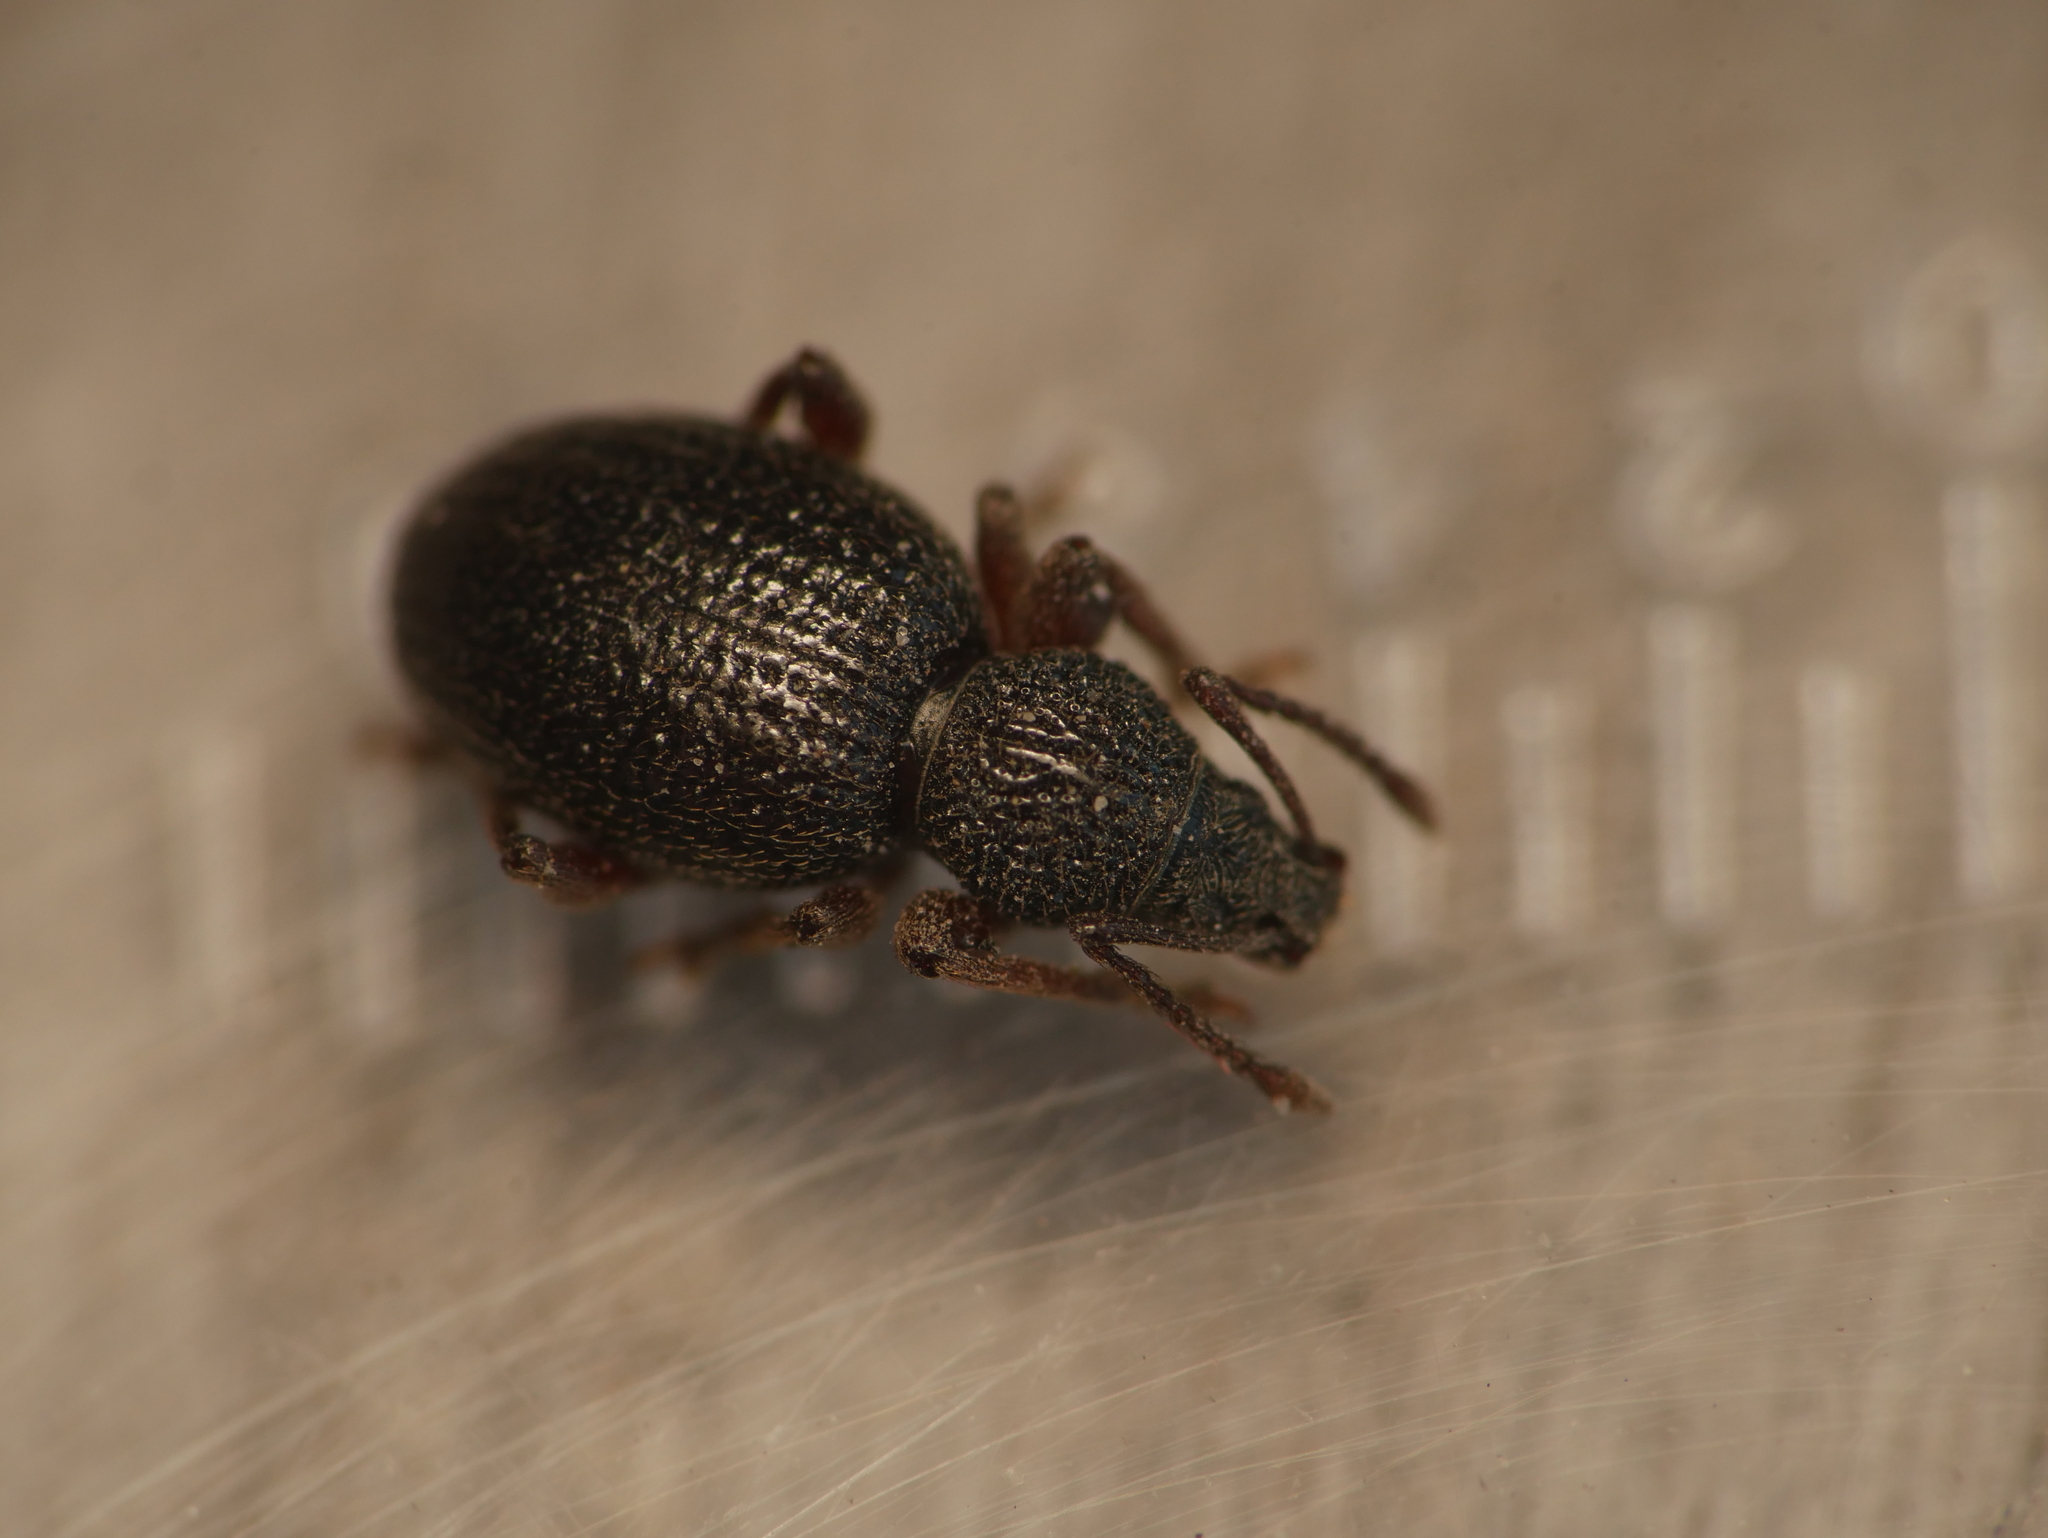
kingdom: Animalia
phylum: Arthropoda
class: Insecta
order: Coleoptera
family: Curculionidae
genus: Otiorhynchus
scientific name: Otiorhynchus ovatus
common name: Strawberry root weevil
